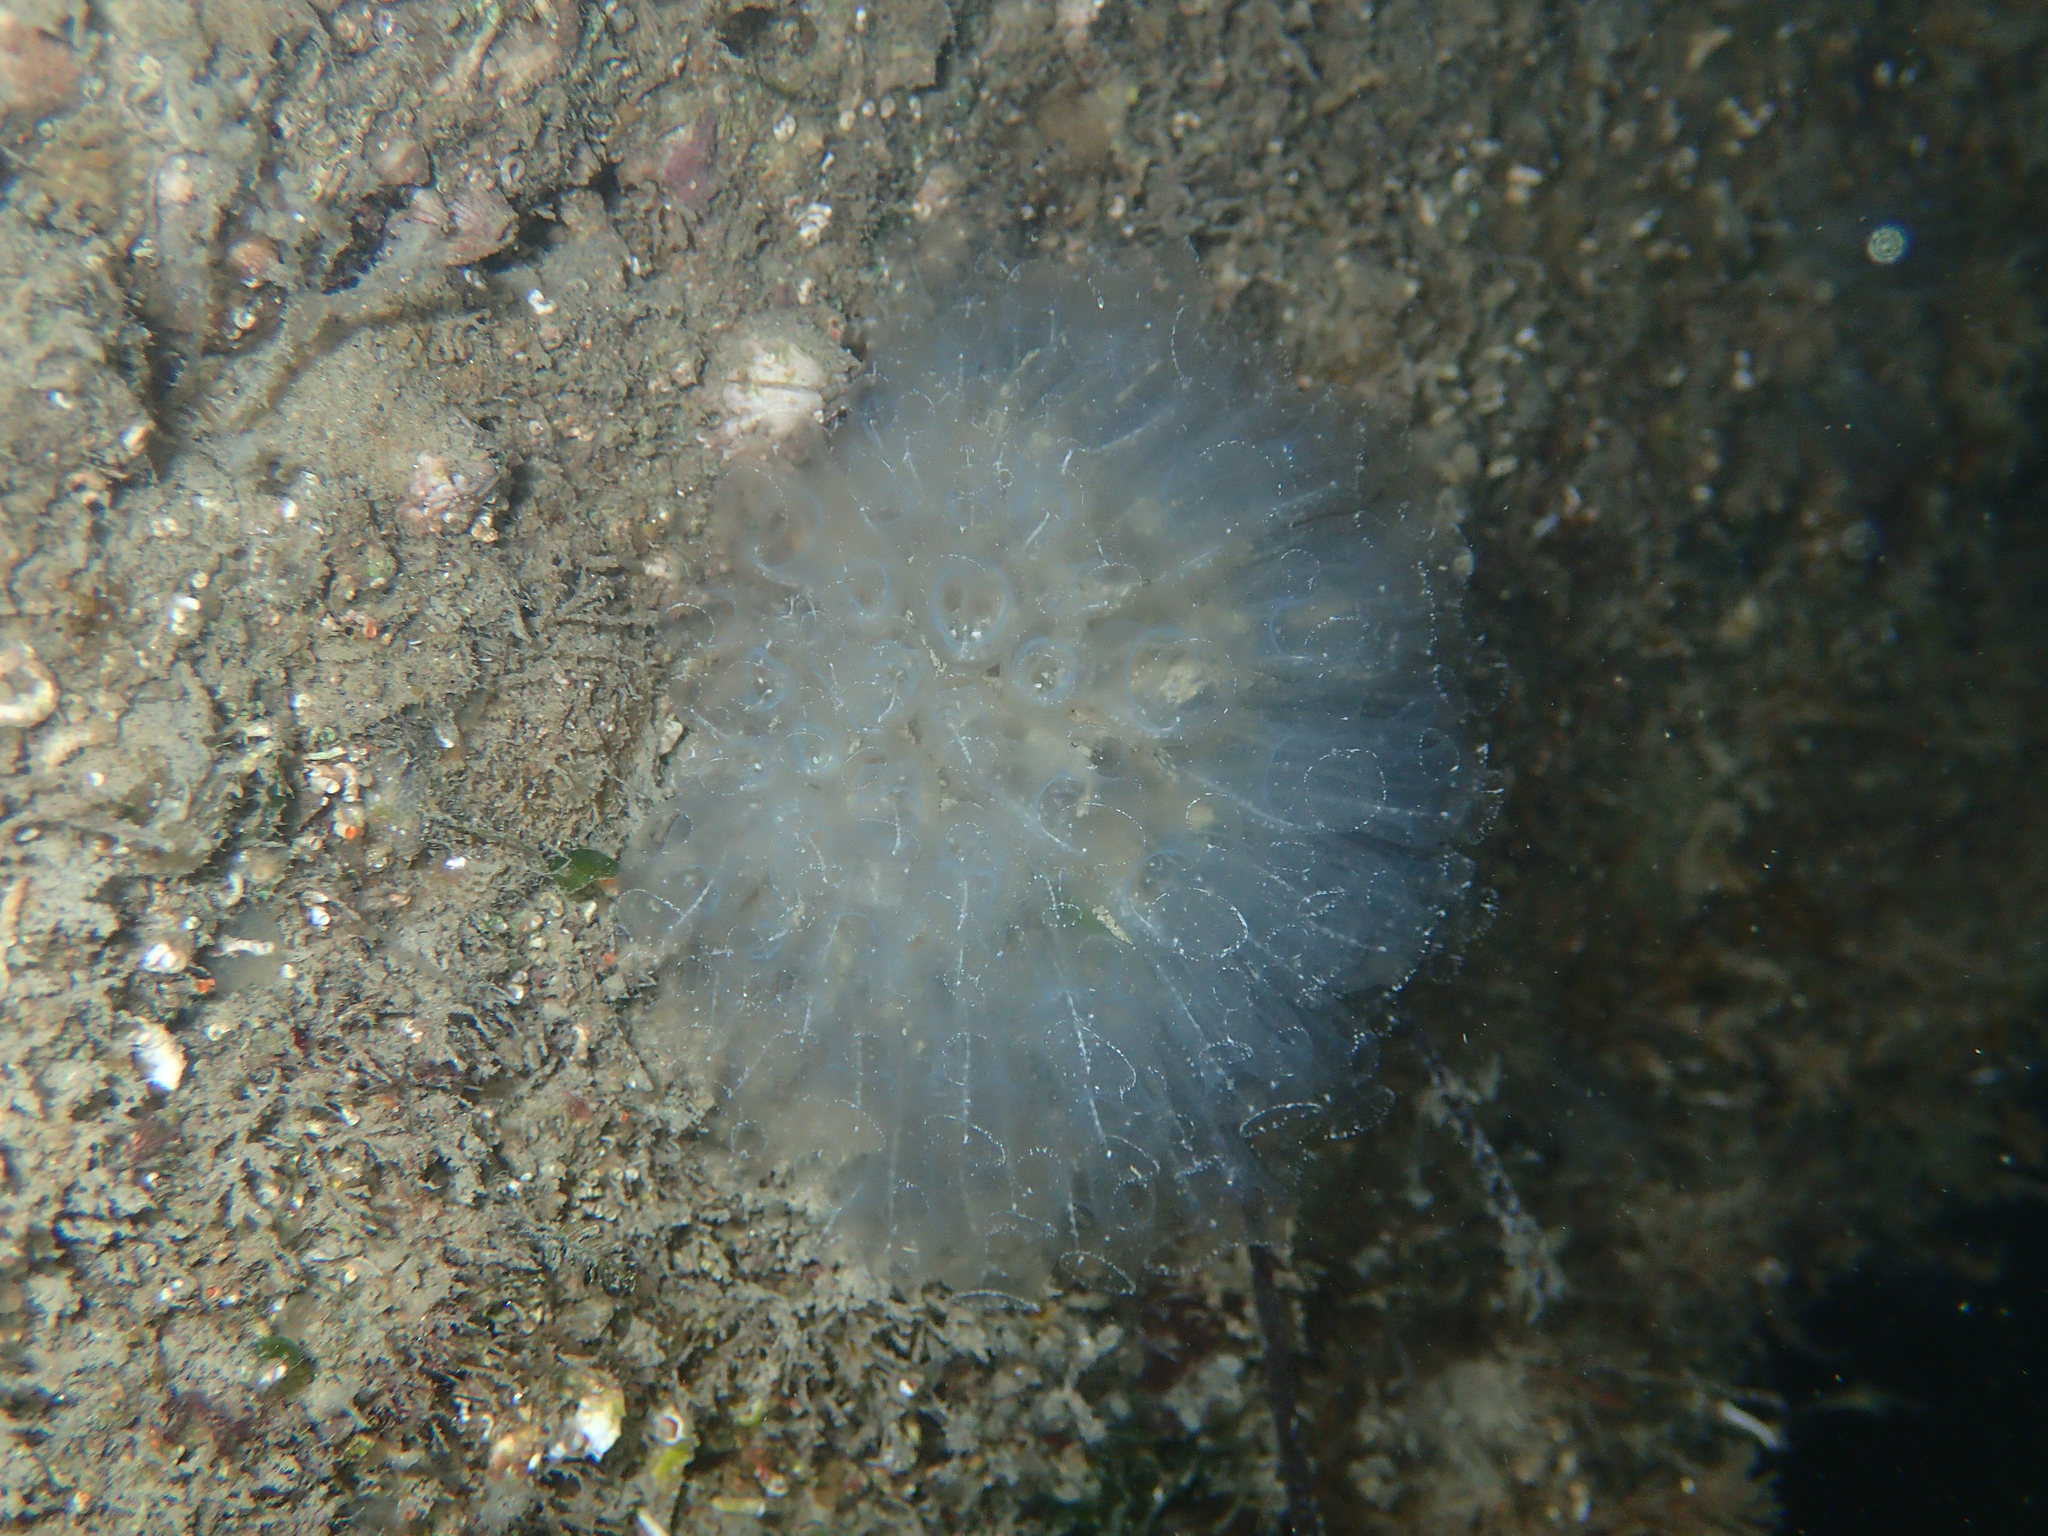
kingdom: Animalia
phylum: Chordata
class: Ascidiacea
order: Aplousobranchia
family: Clavelinidae
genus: Clavelina
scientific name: Clavelina oblonga
